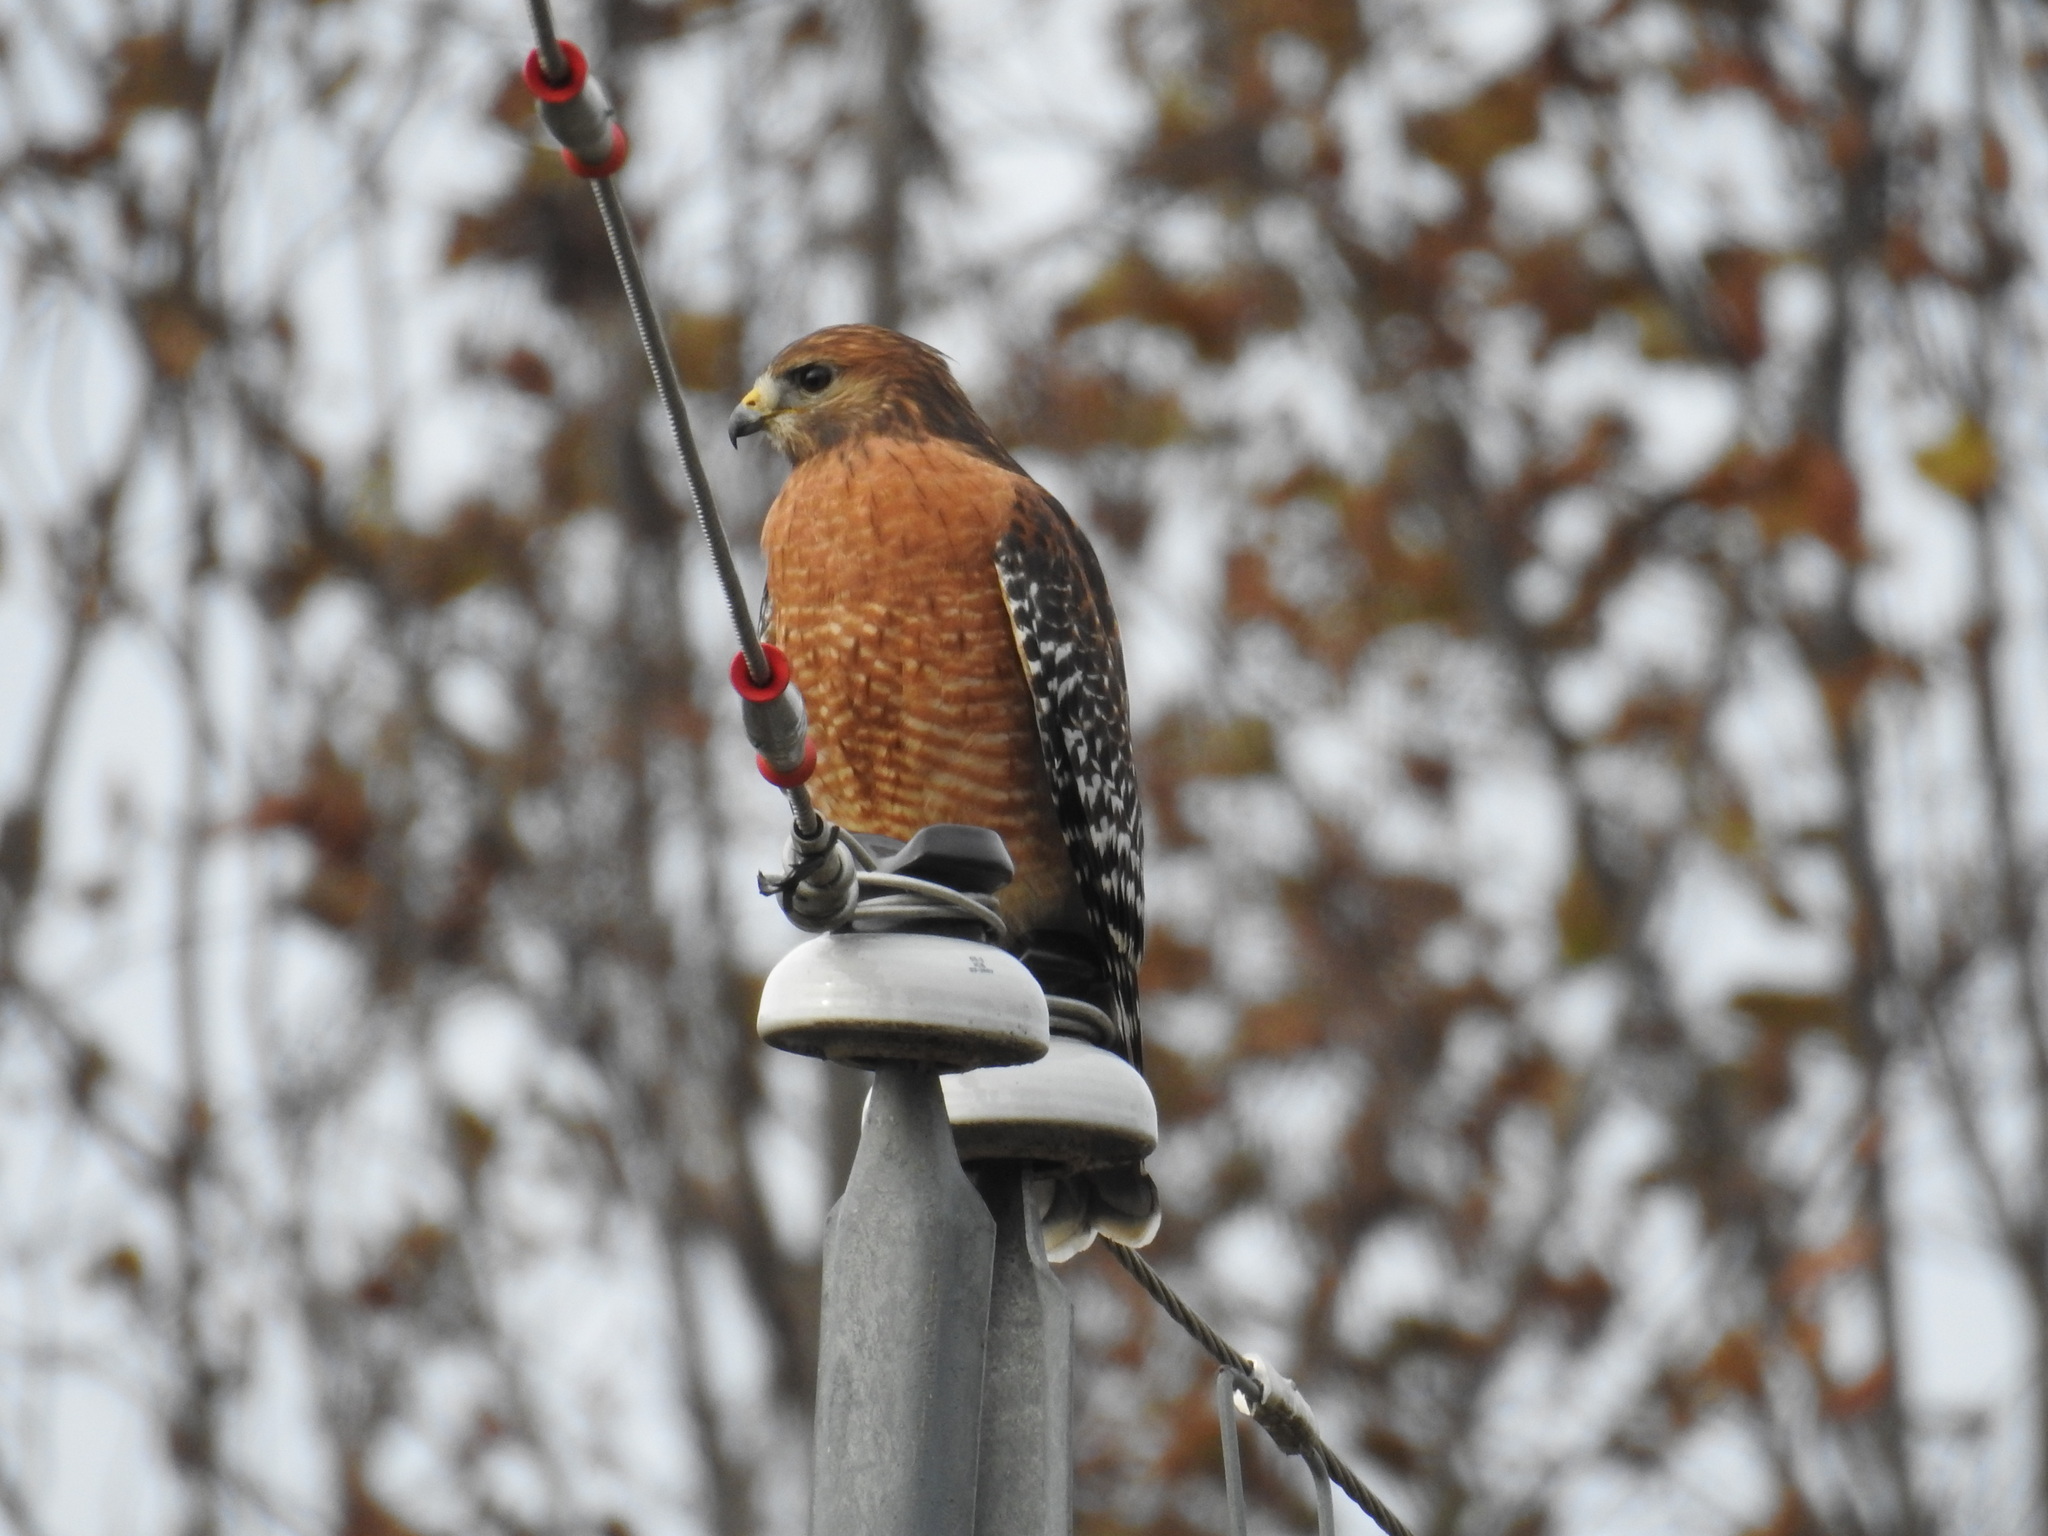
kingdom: Animalia
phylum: Chordata
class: Aves
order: Accipitriformes
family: Accipitridae
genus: Buteo
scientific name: Buteo lineatus
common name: Red-shouldered hawk
